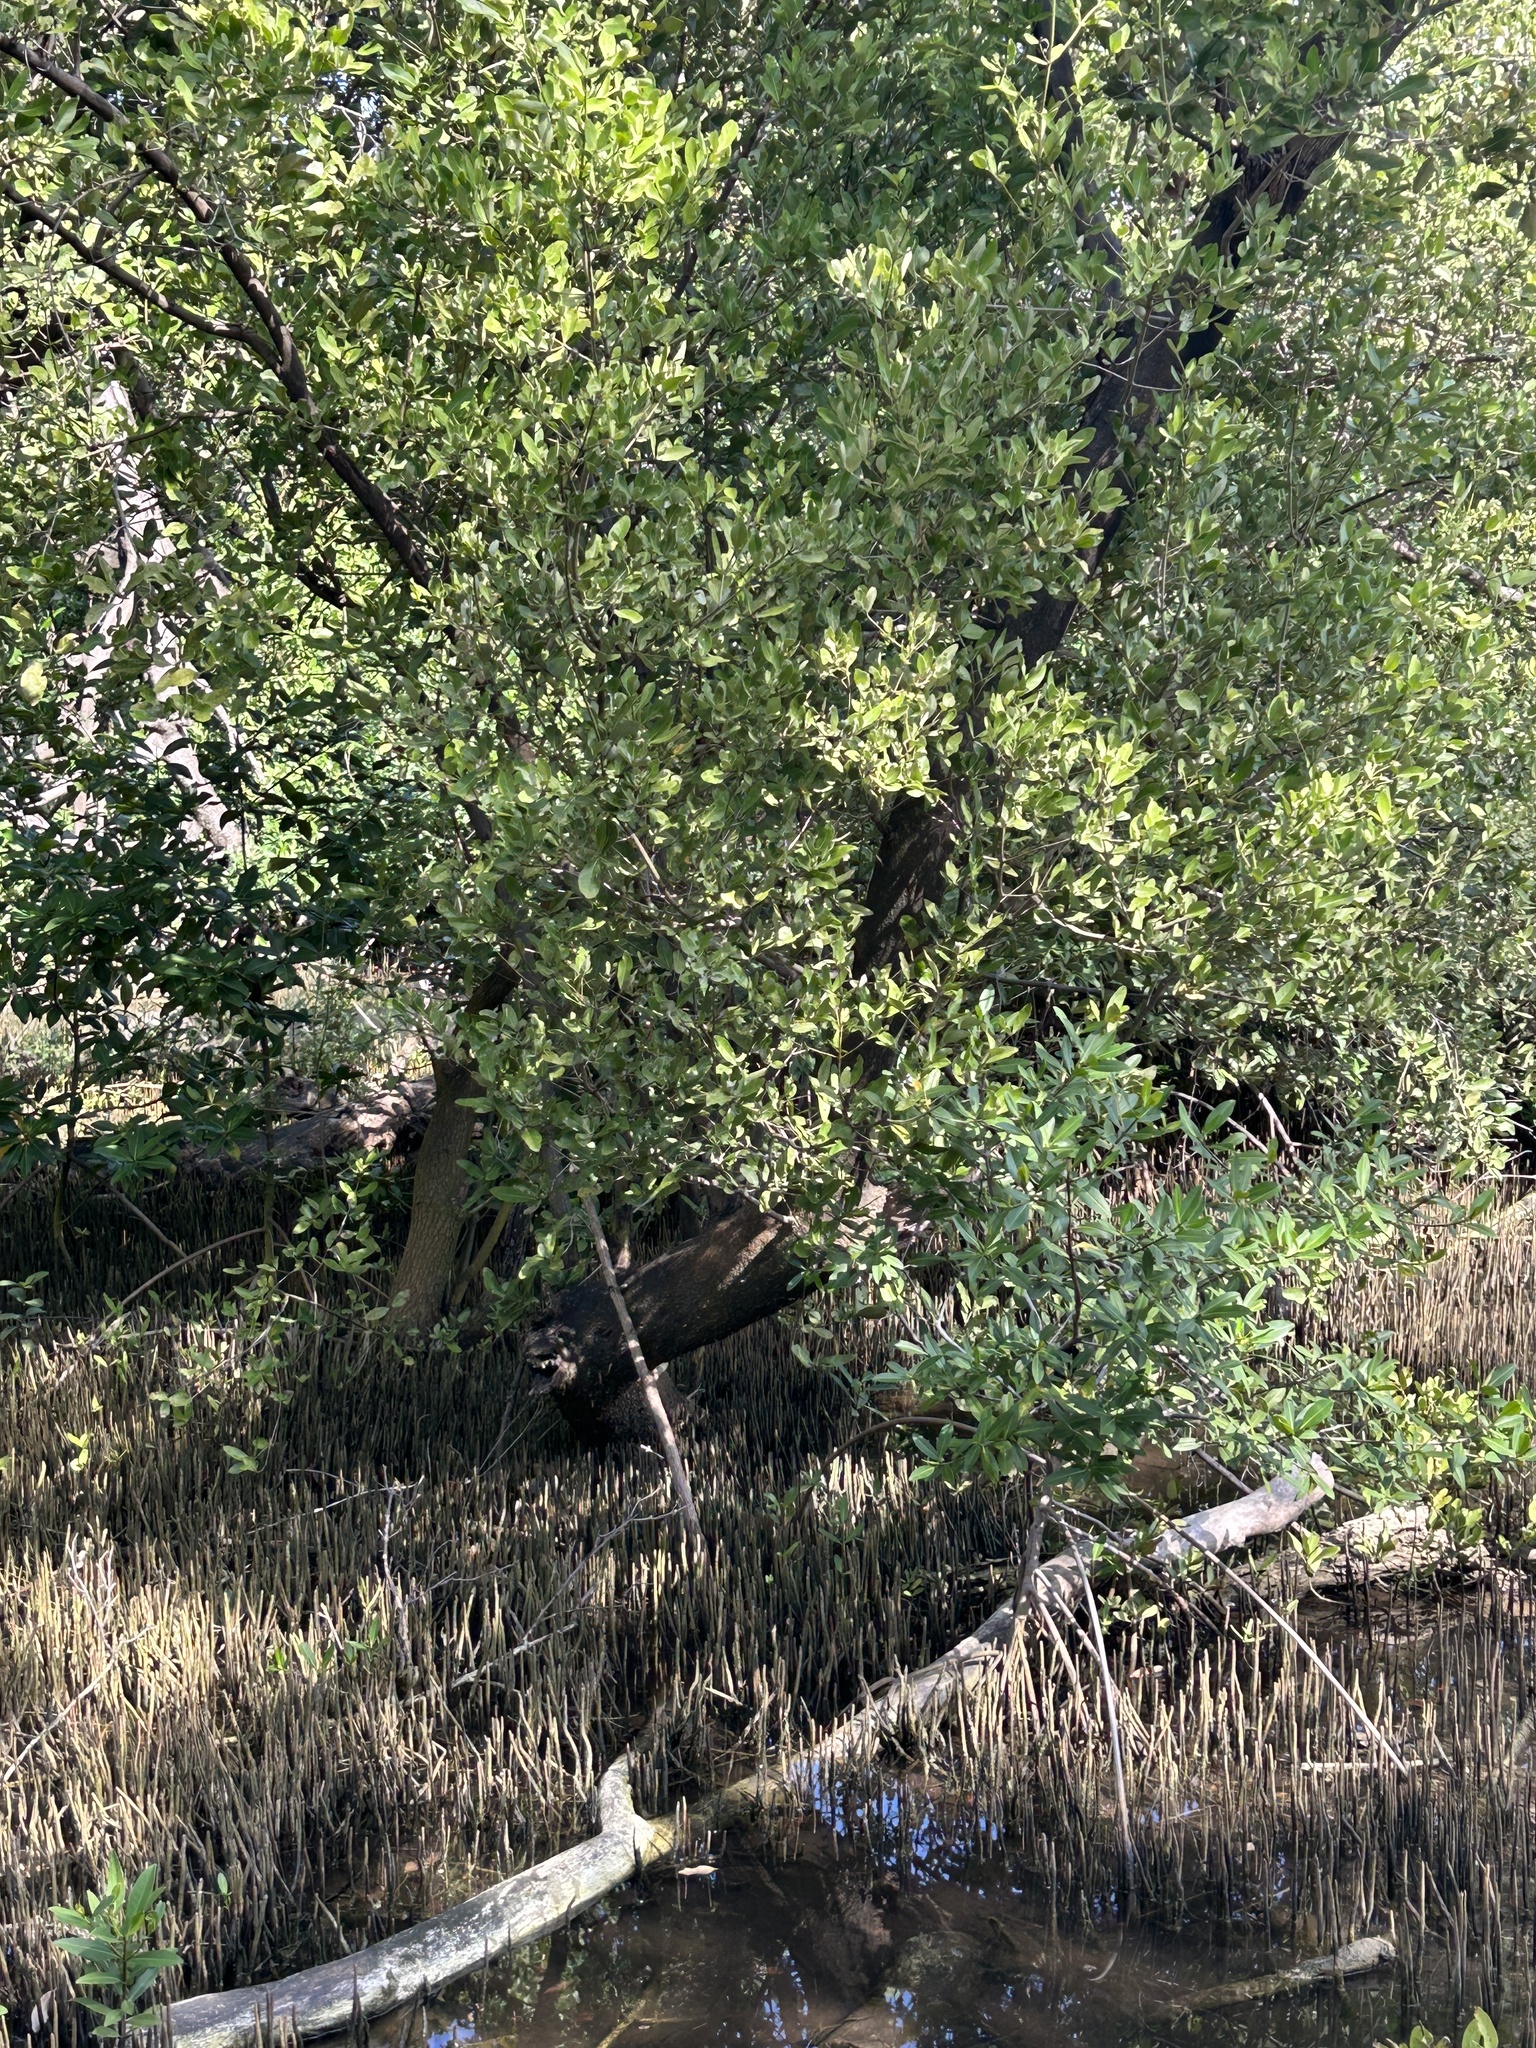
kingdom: Plantae
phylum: Tracheophyta
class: Magnoliopsida
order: Lamiales
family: Acanthaceae
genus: Avicennia
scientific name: Avicennia germinans
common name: Black mangrove
